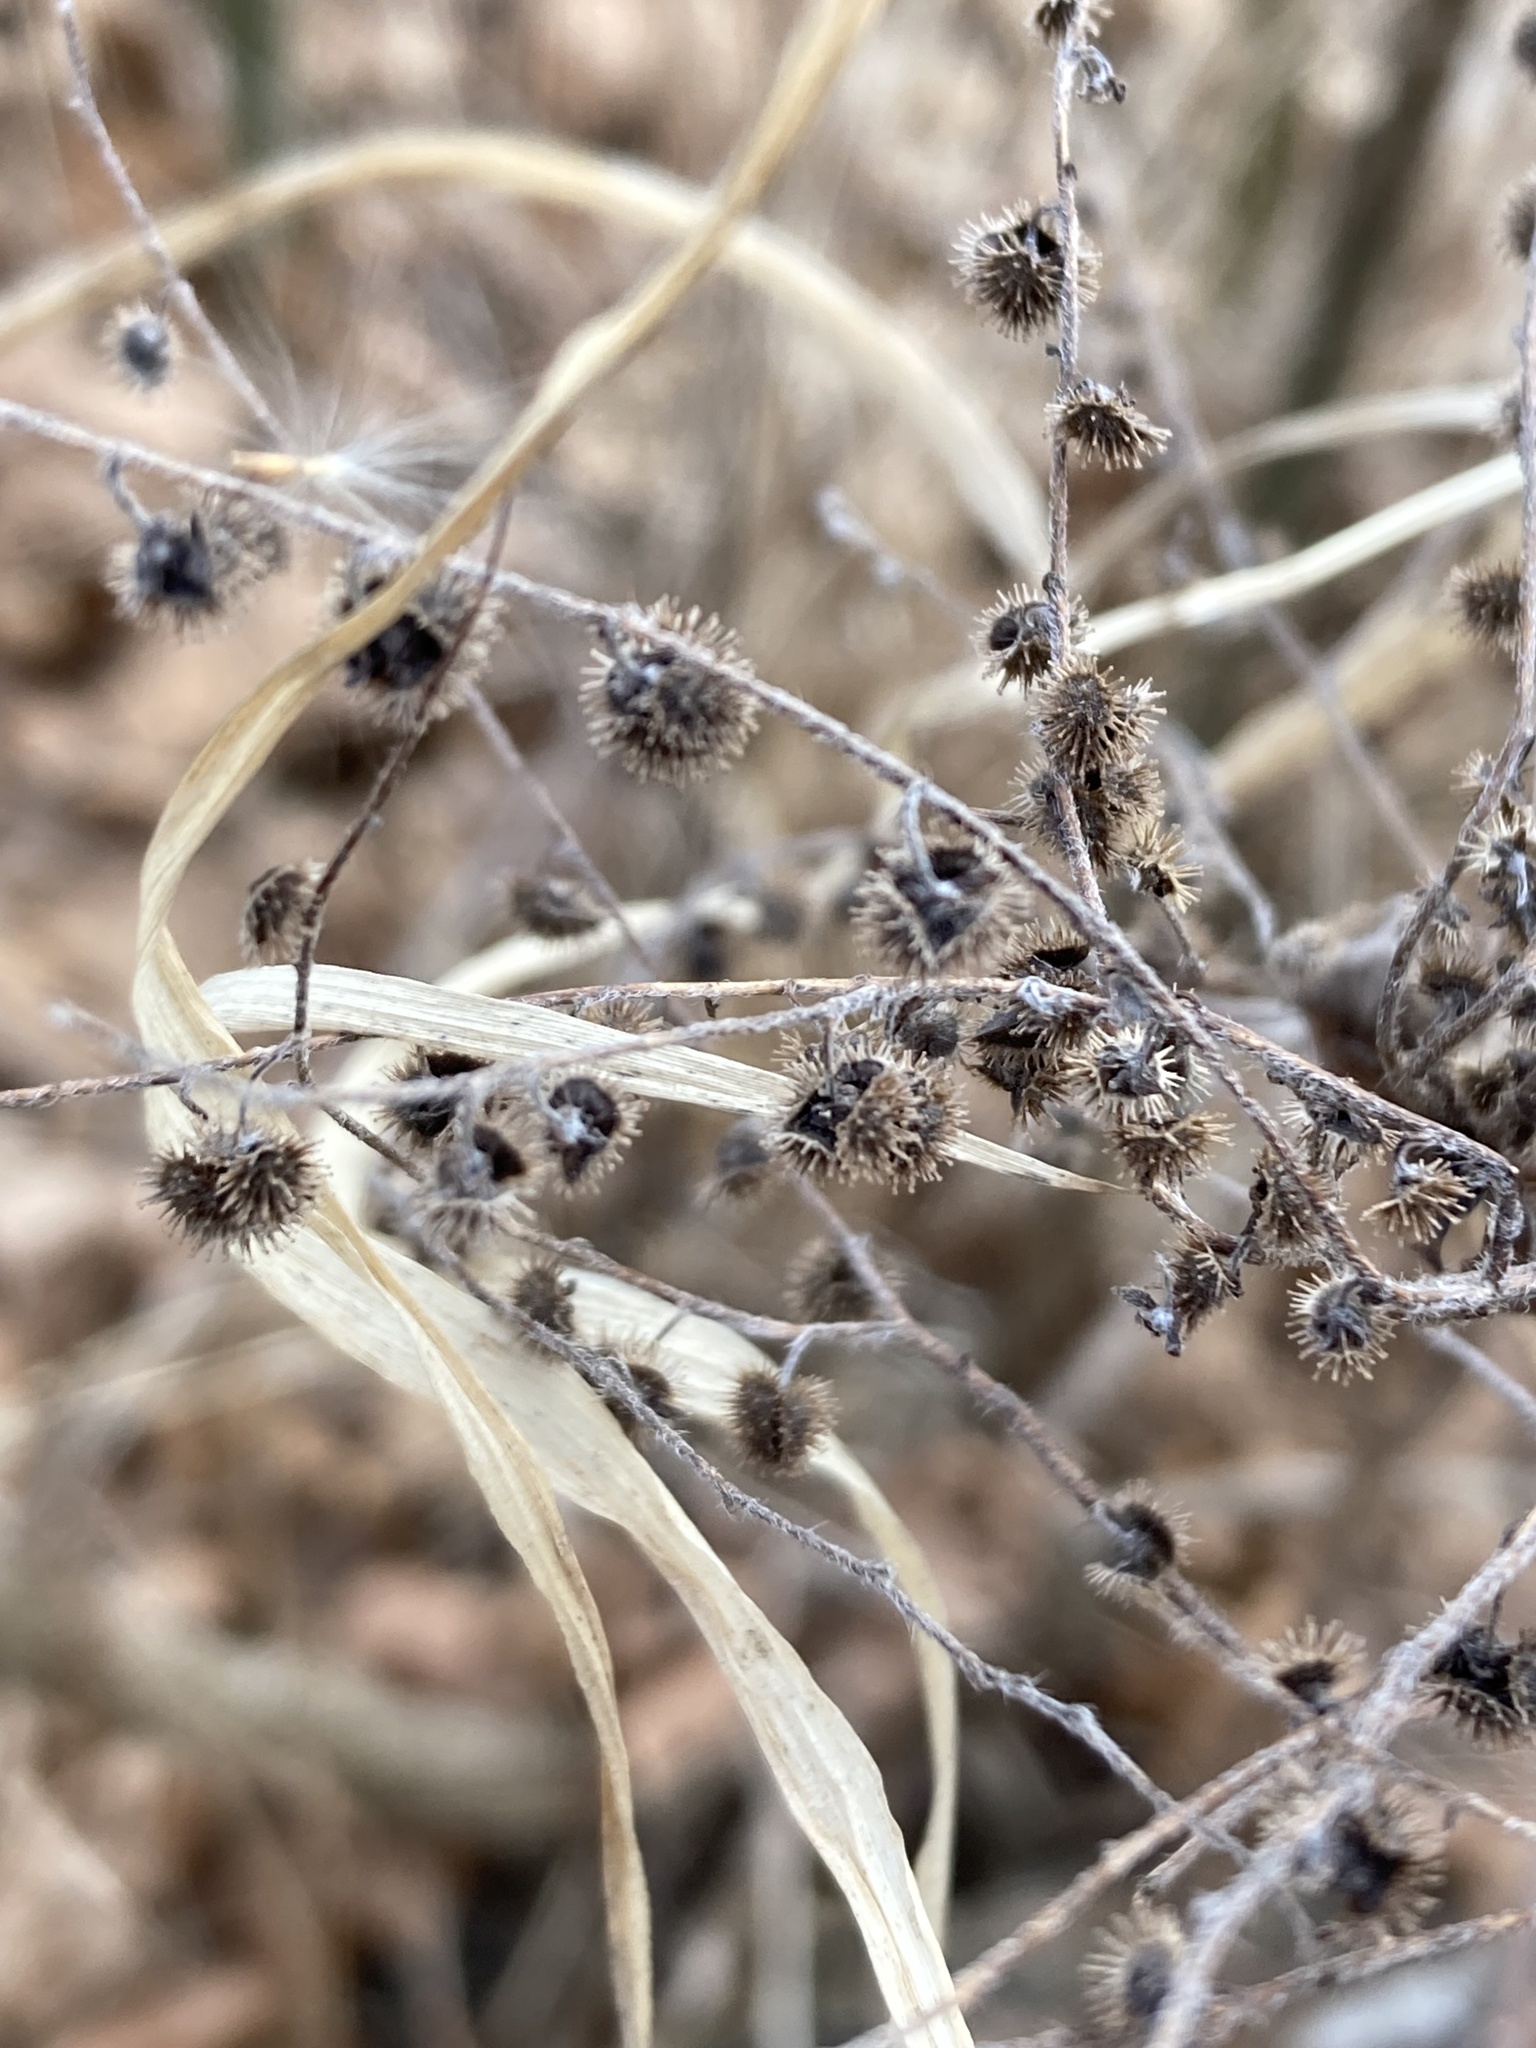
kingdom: Plantae
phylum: Tracheophyta
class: Magnoliopsida
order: Boraginales
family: Boraginaceae
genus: Hackelia
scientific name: Hackelia virginiana
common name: Beggar's-lice
